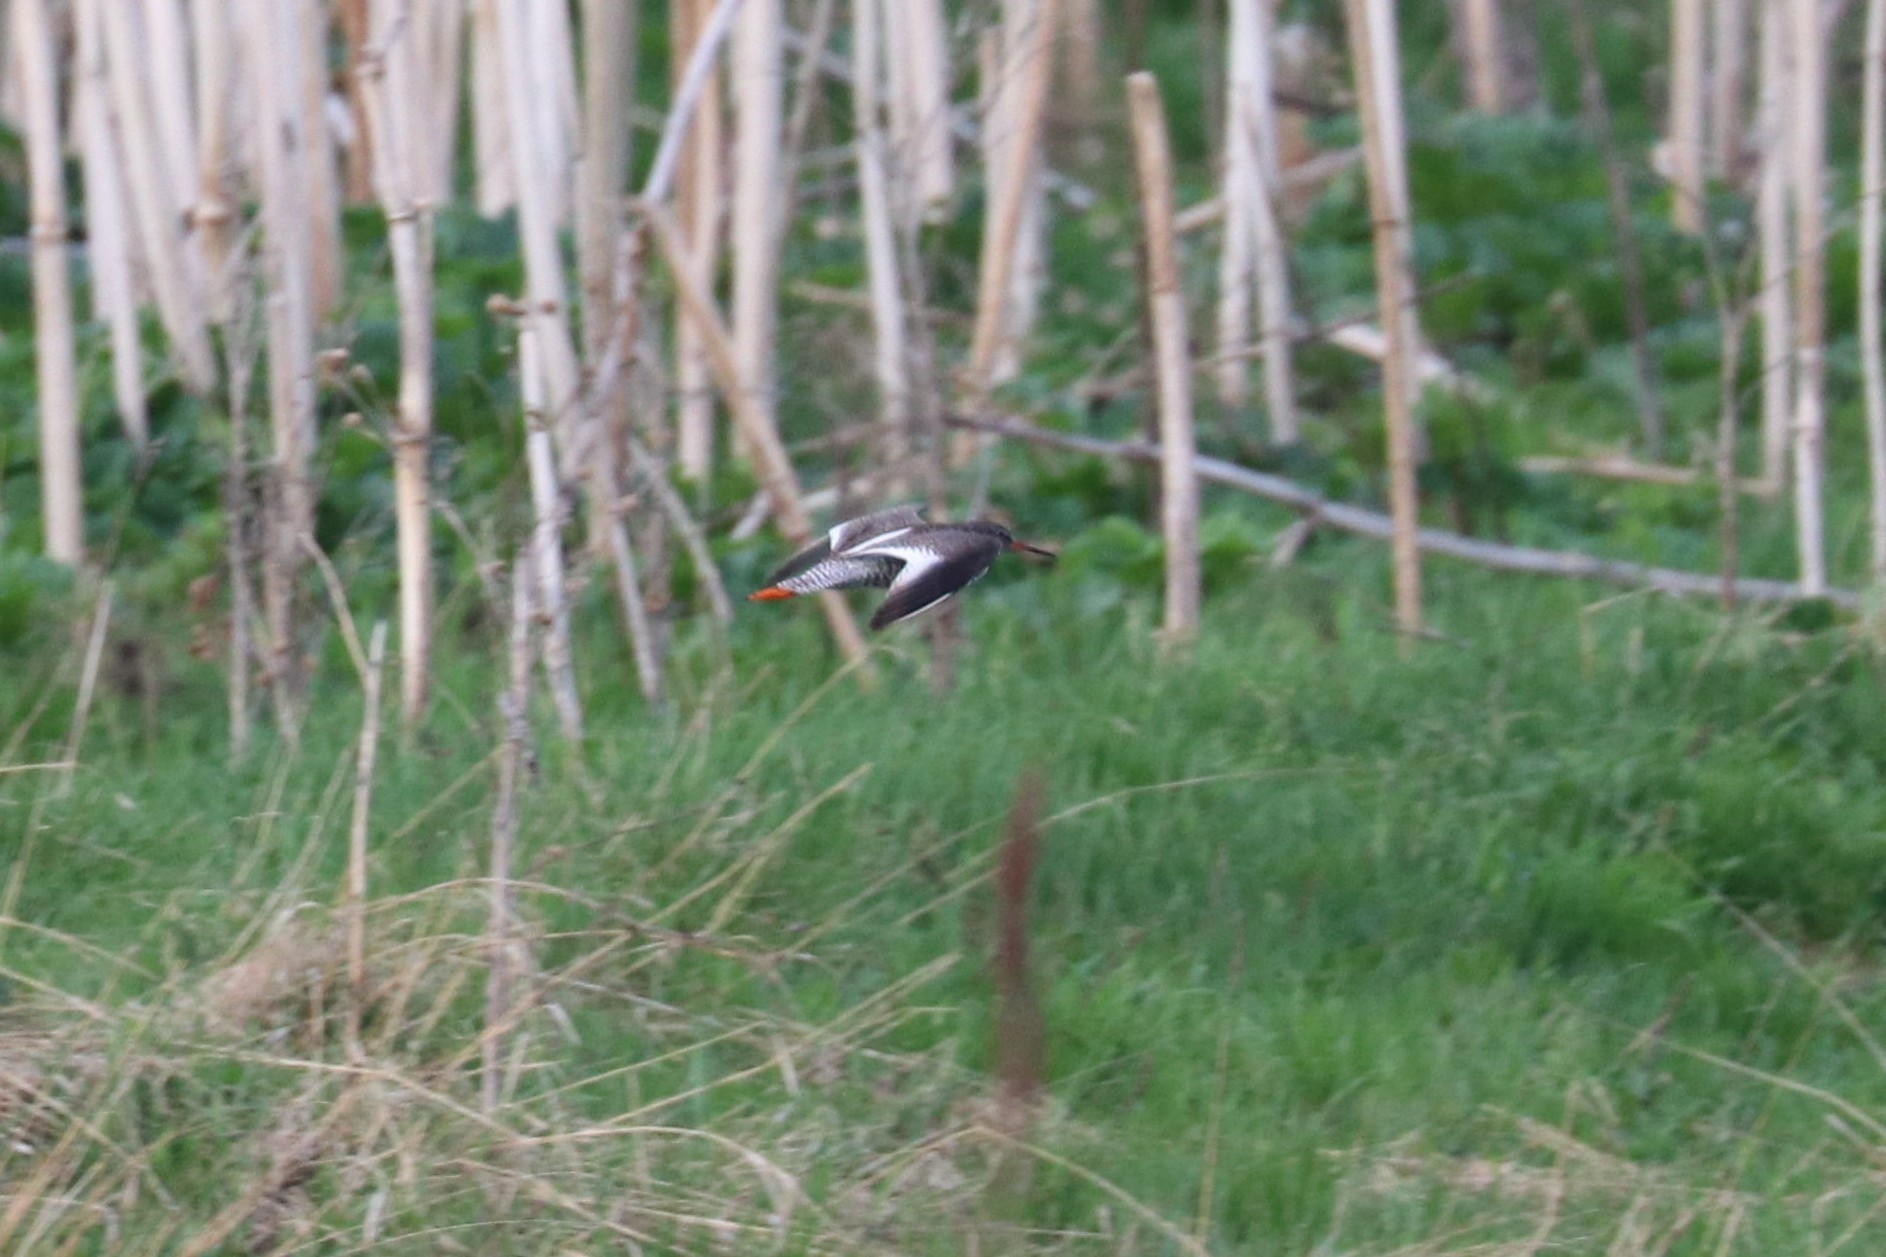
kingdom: Animalia
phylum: Chordata
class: Aves
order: Charadriiformes
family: Scolopacidae
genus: Tringa
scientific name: Tringa totanus
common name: Common redshank
